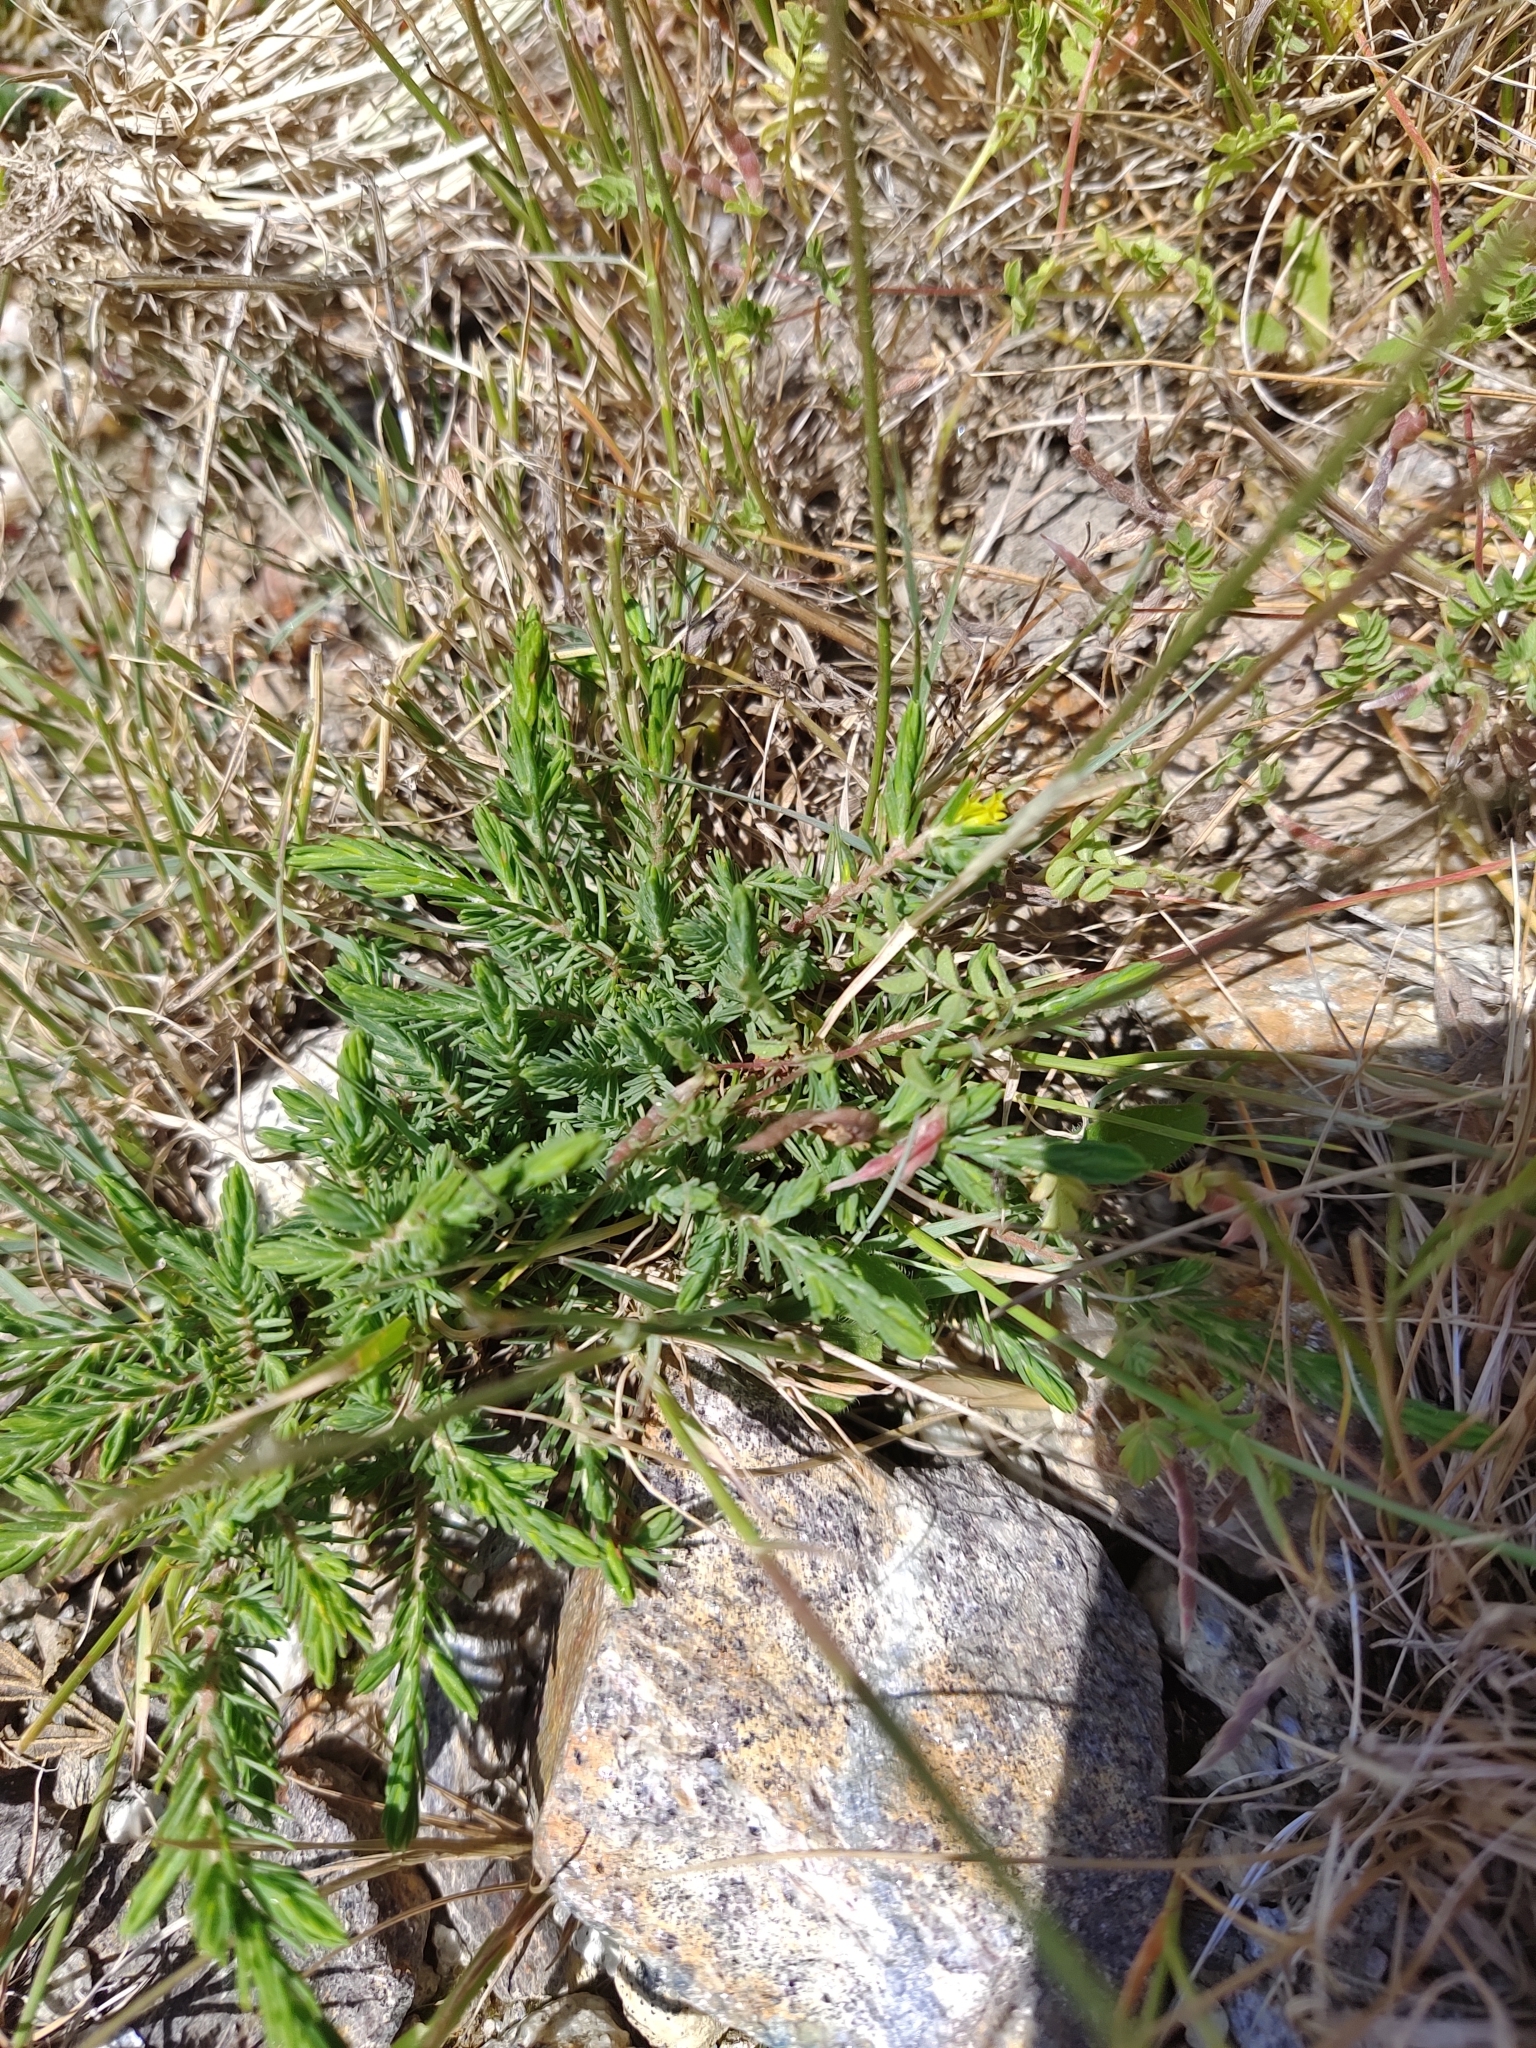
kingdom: Plantae
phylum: Tracheophyta
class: Magnoliopsida
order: Malvales
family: Thymelaeaceae
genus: Thymelaea
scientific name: Thymelaea broteriana
